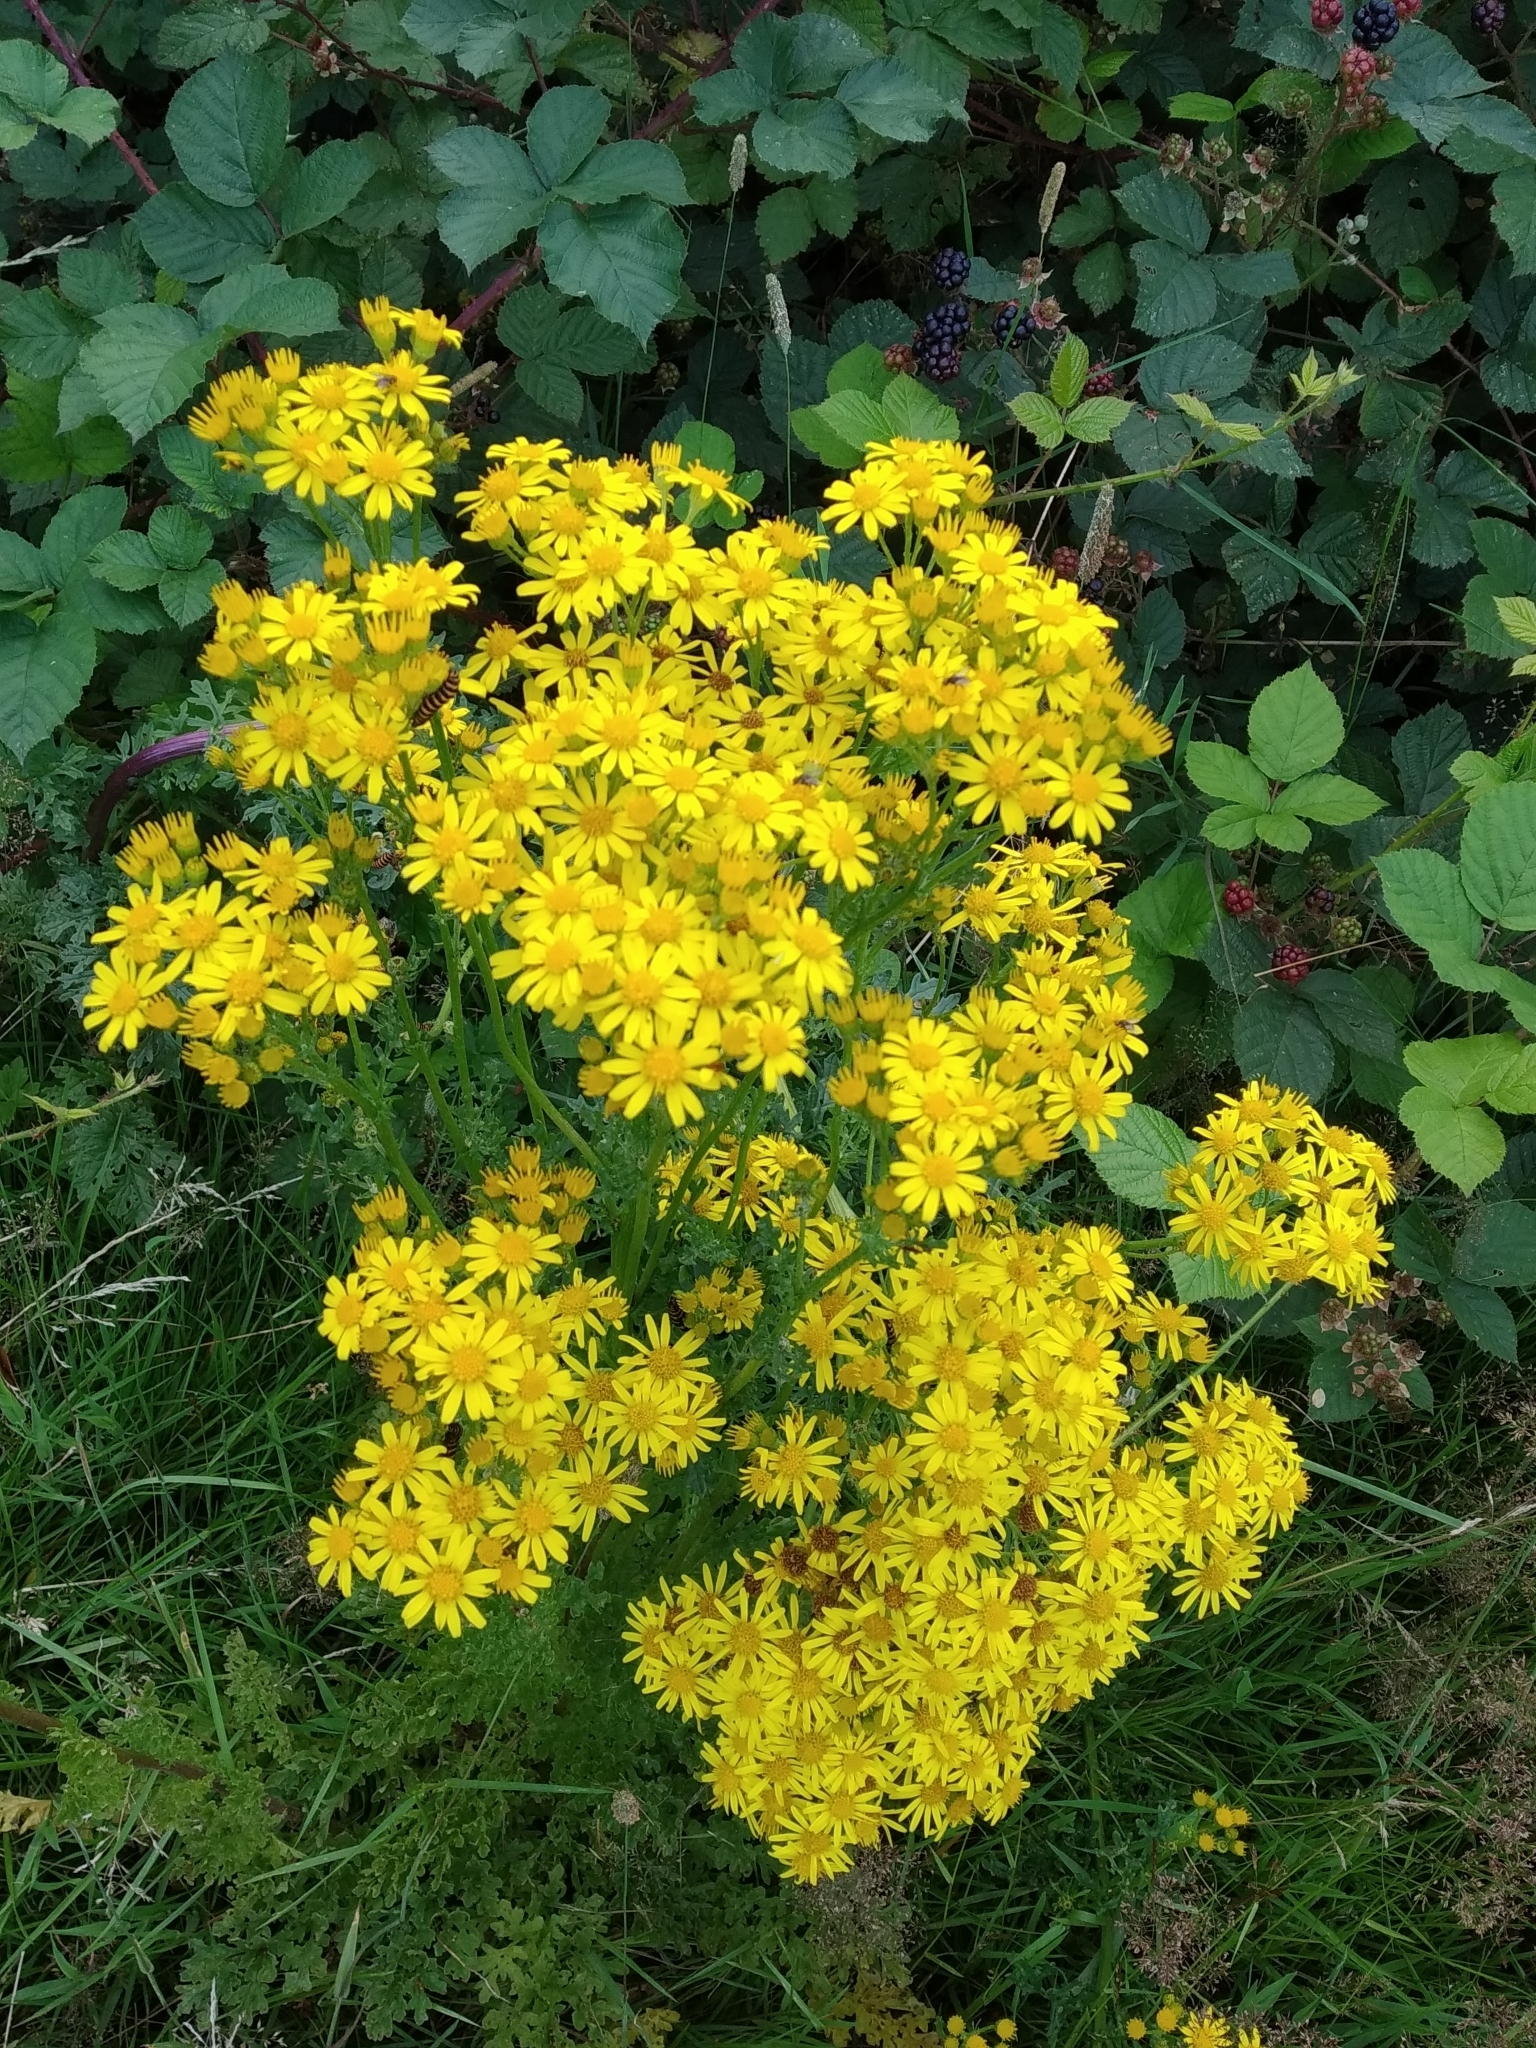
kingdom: Plantae
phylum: Tracheophyta
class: Magnoliopsida
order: Asterales
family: Asteraceae
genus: Jacobaea
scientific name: Jacobaea vulgaris
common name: Stinking willie
